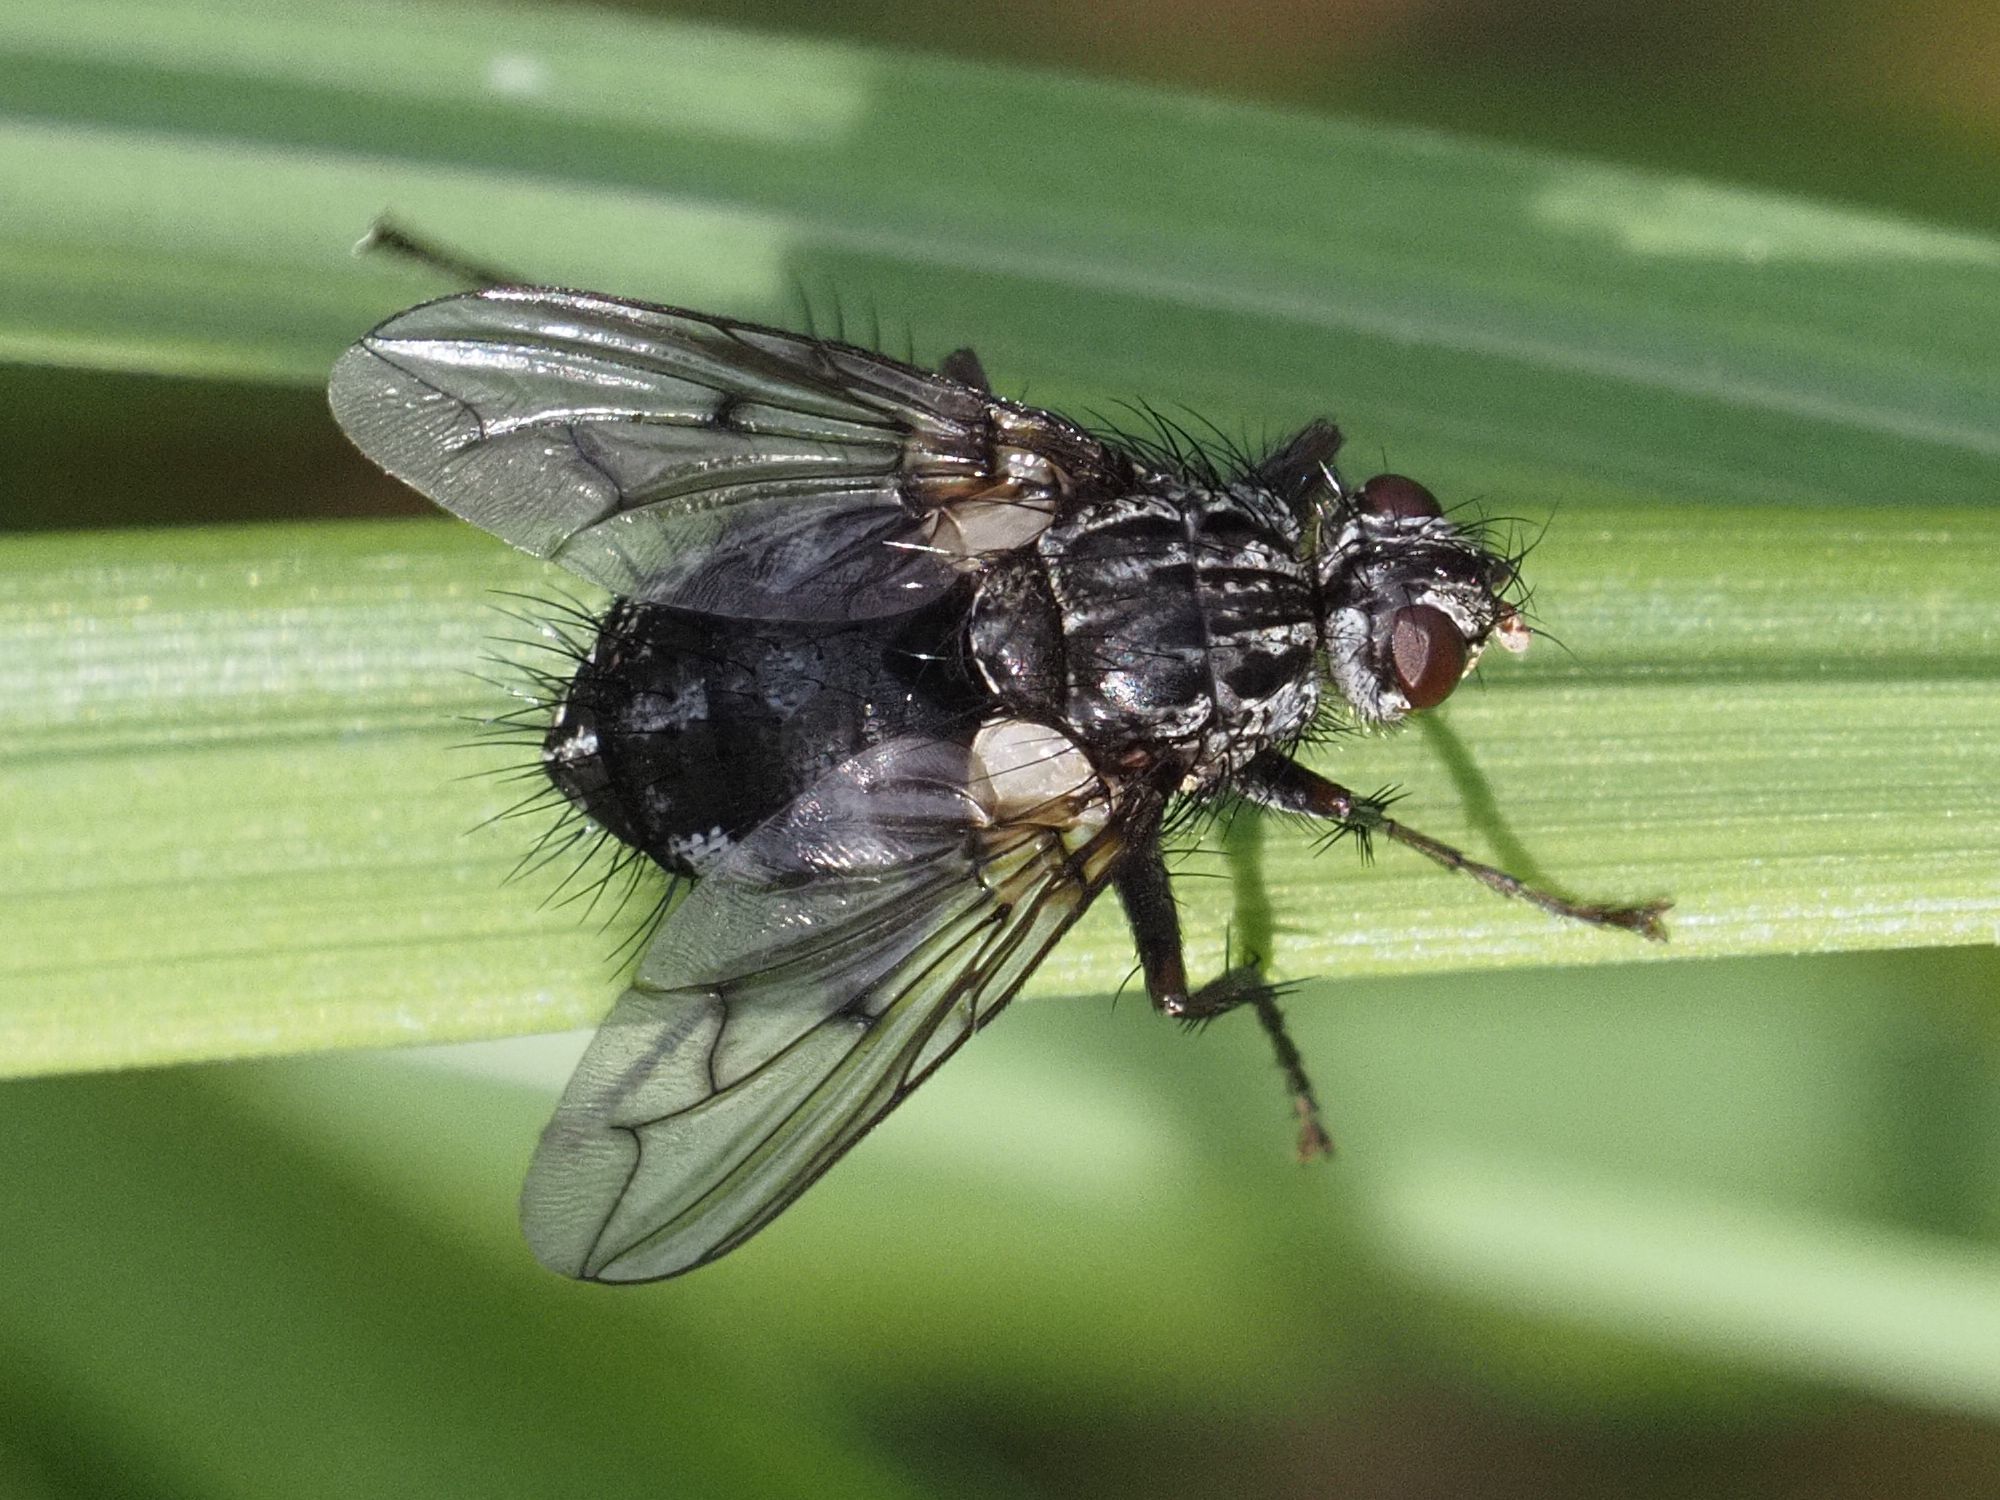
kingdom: Animalia
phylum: Arthropoda
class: Insecta
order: Diptera
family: Tachinidae
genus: Trixa
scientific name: Trixa conspersa
